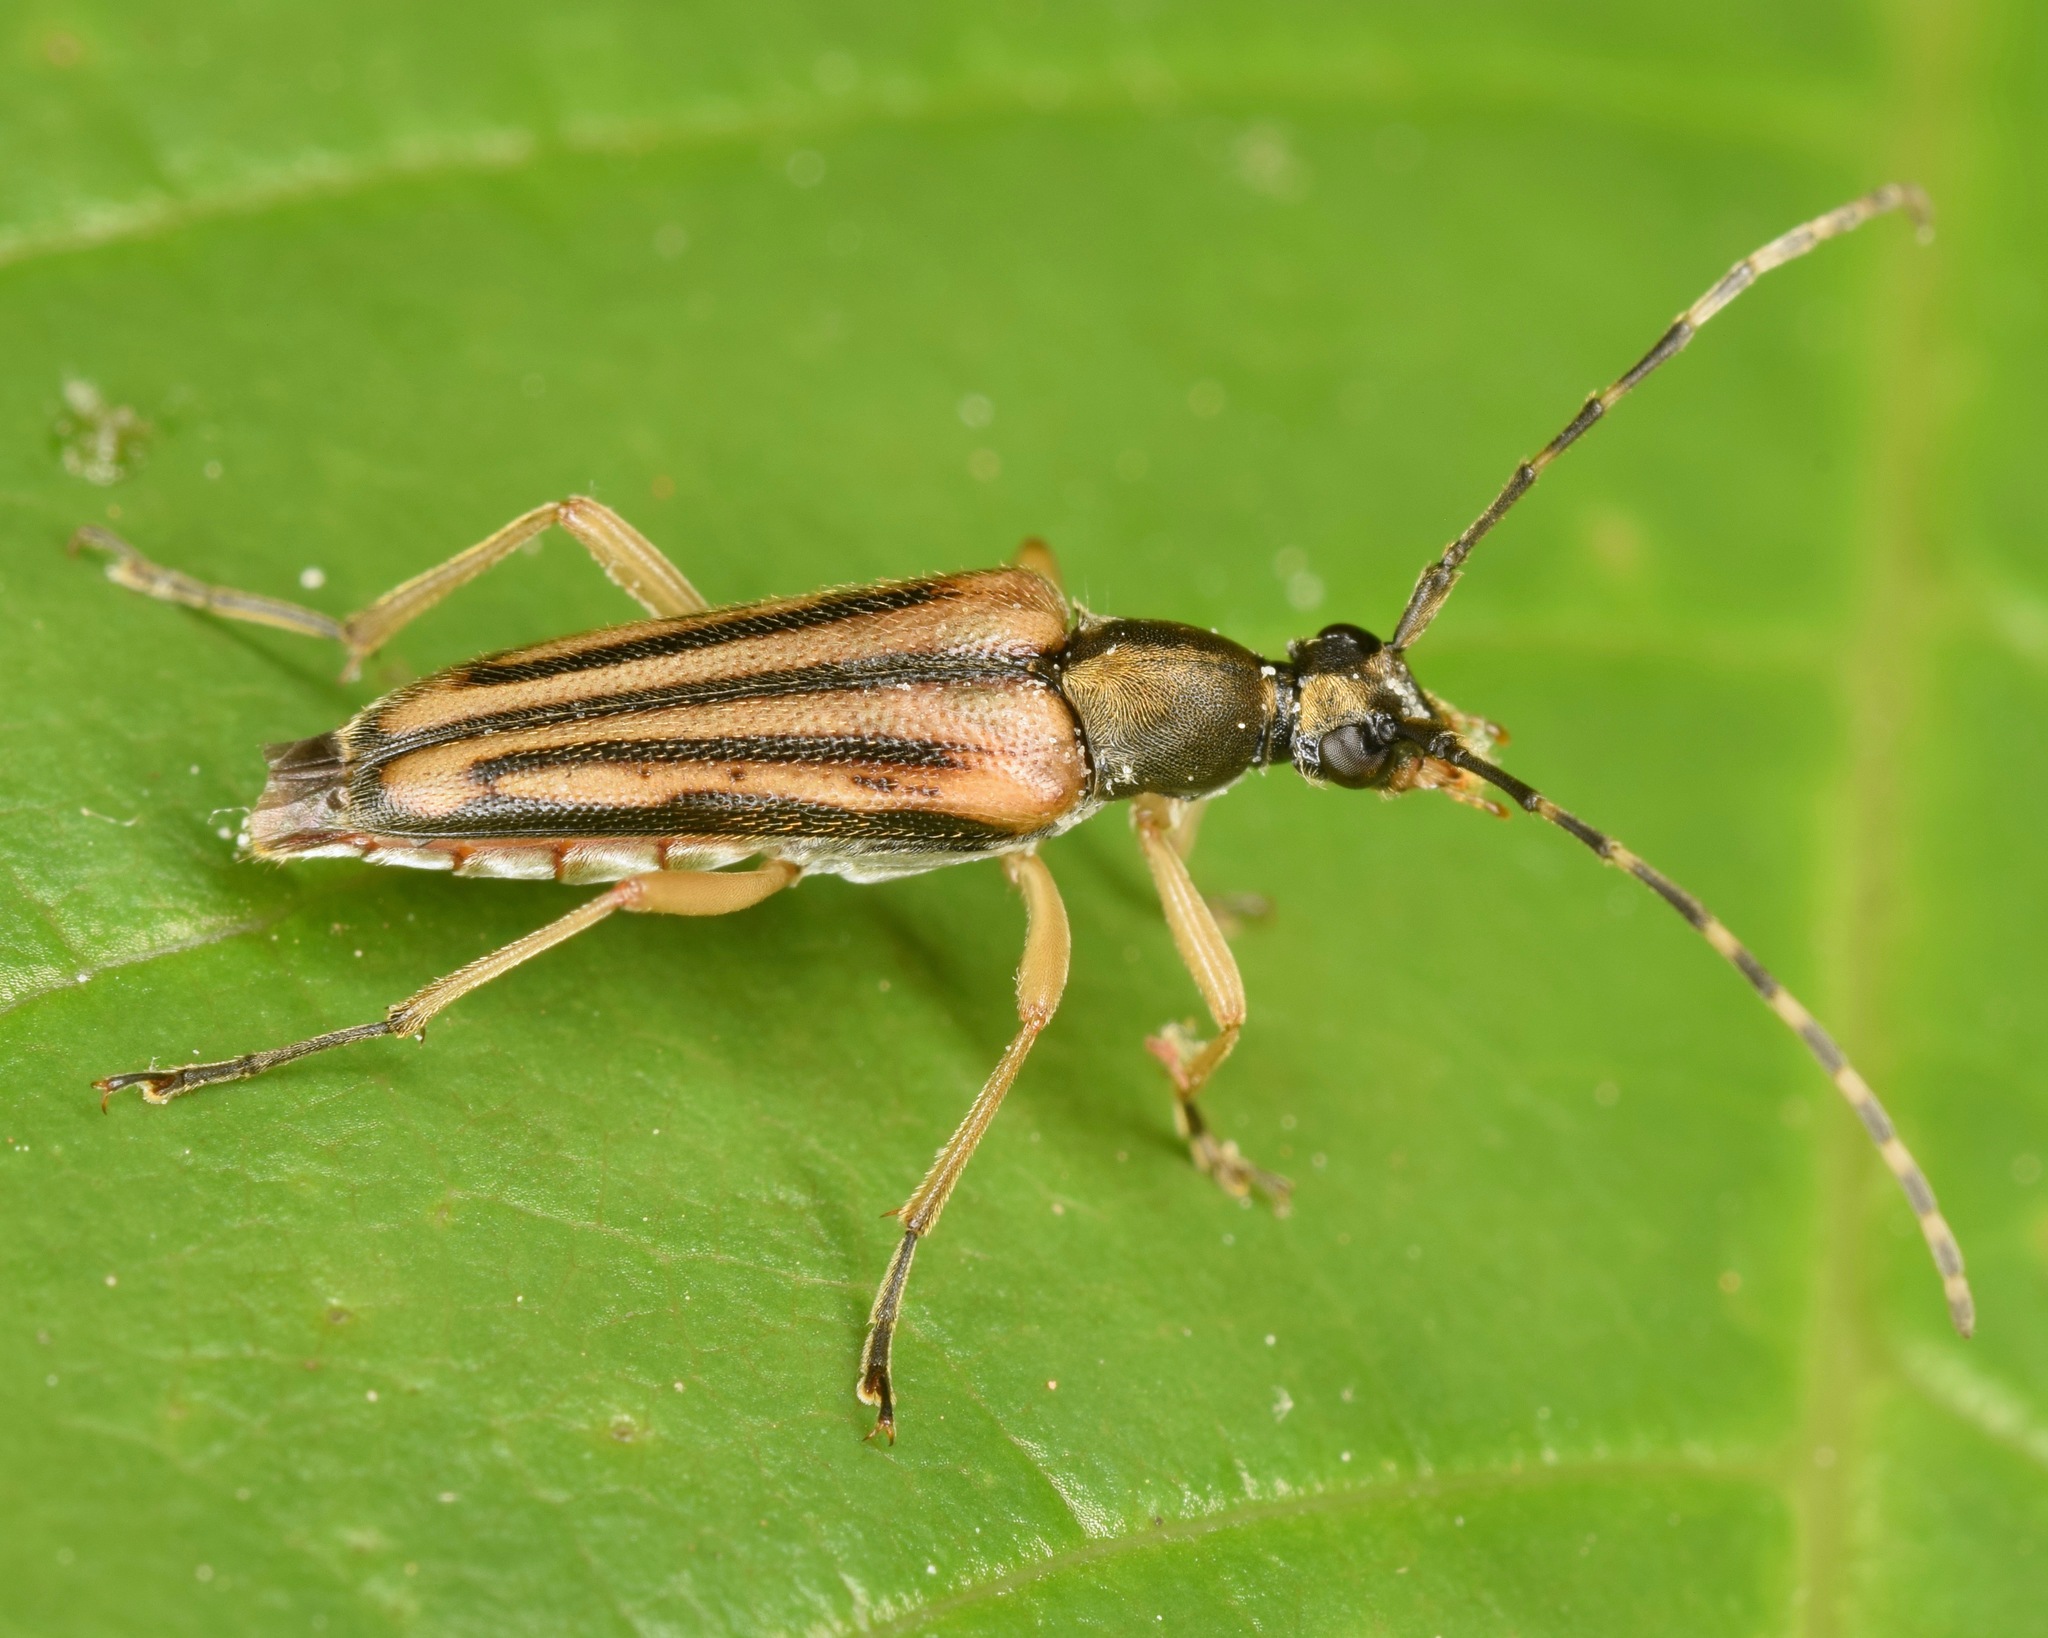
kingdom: Animalia
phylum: Arthropoda
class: Insecta
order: Coleoptera
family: Cerambycidae
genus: Analeptura
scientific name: Analeptura lineola
